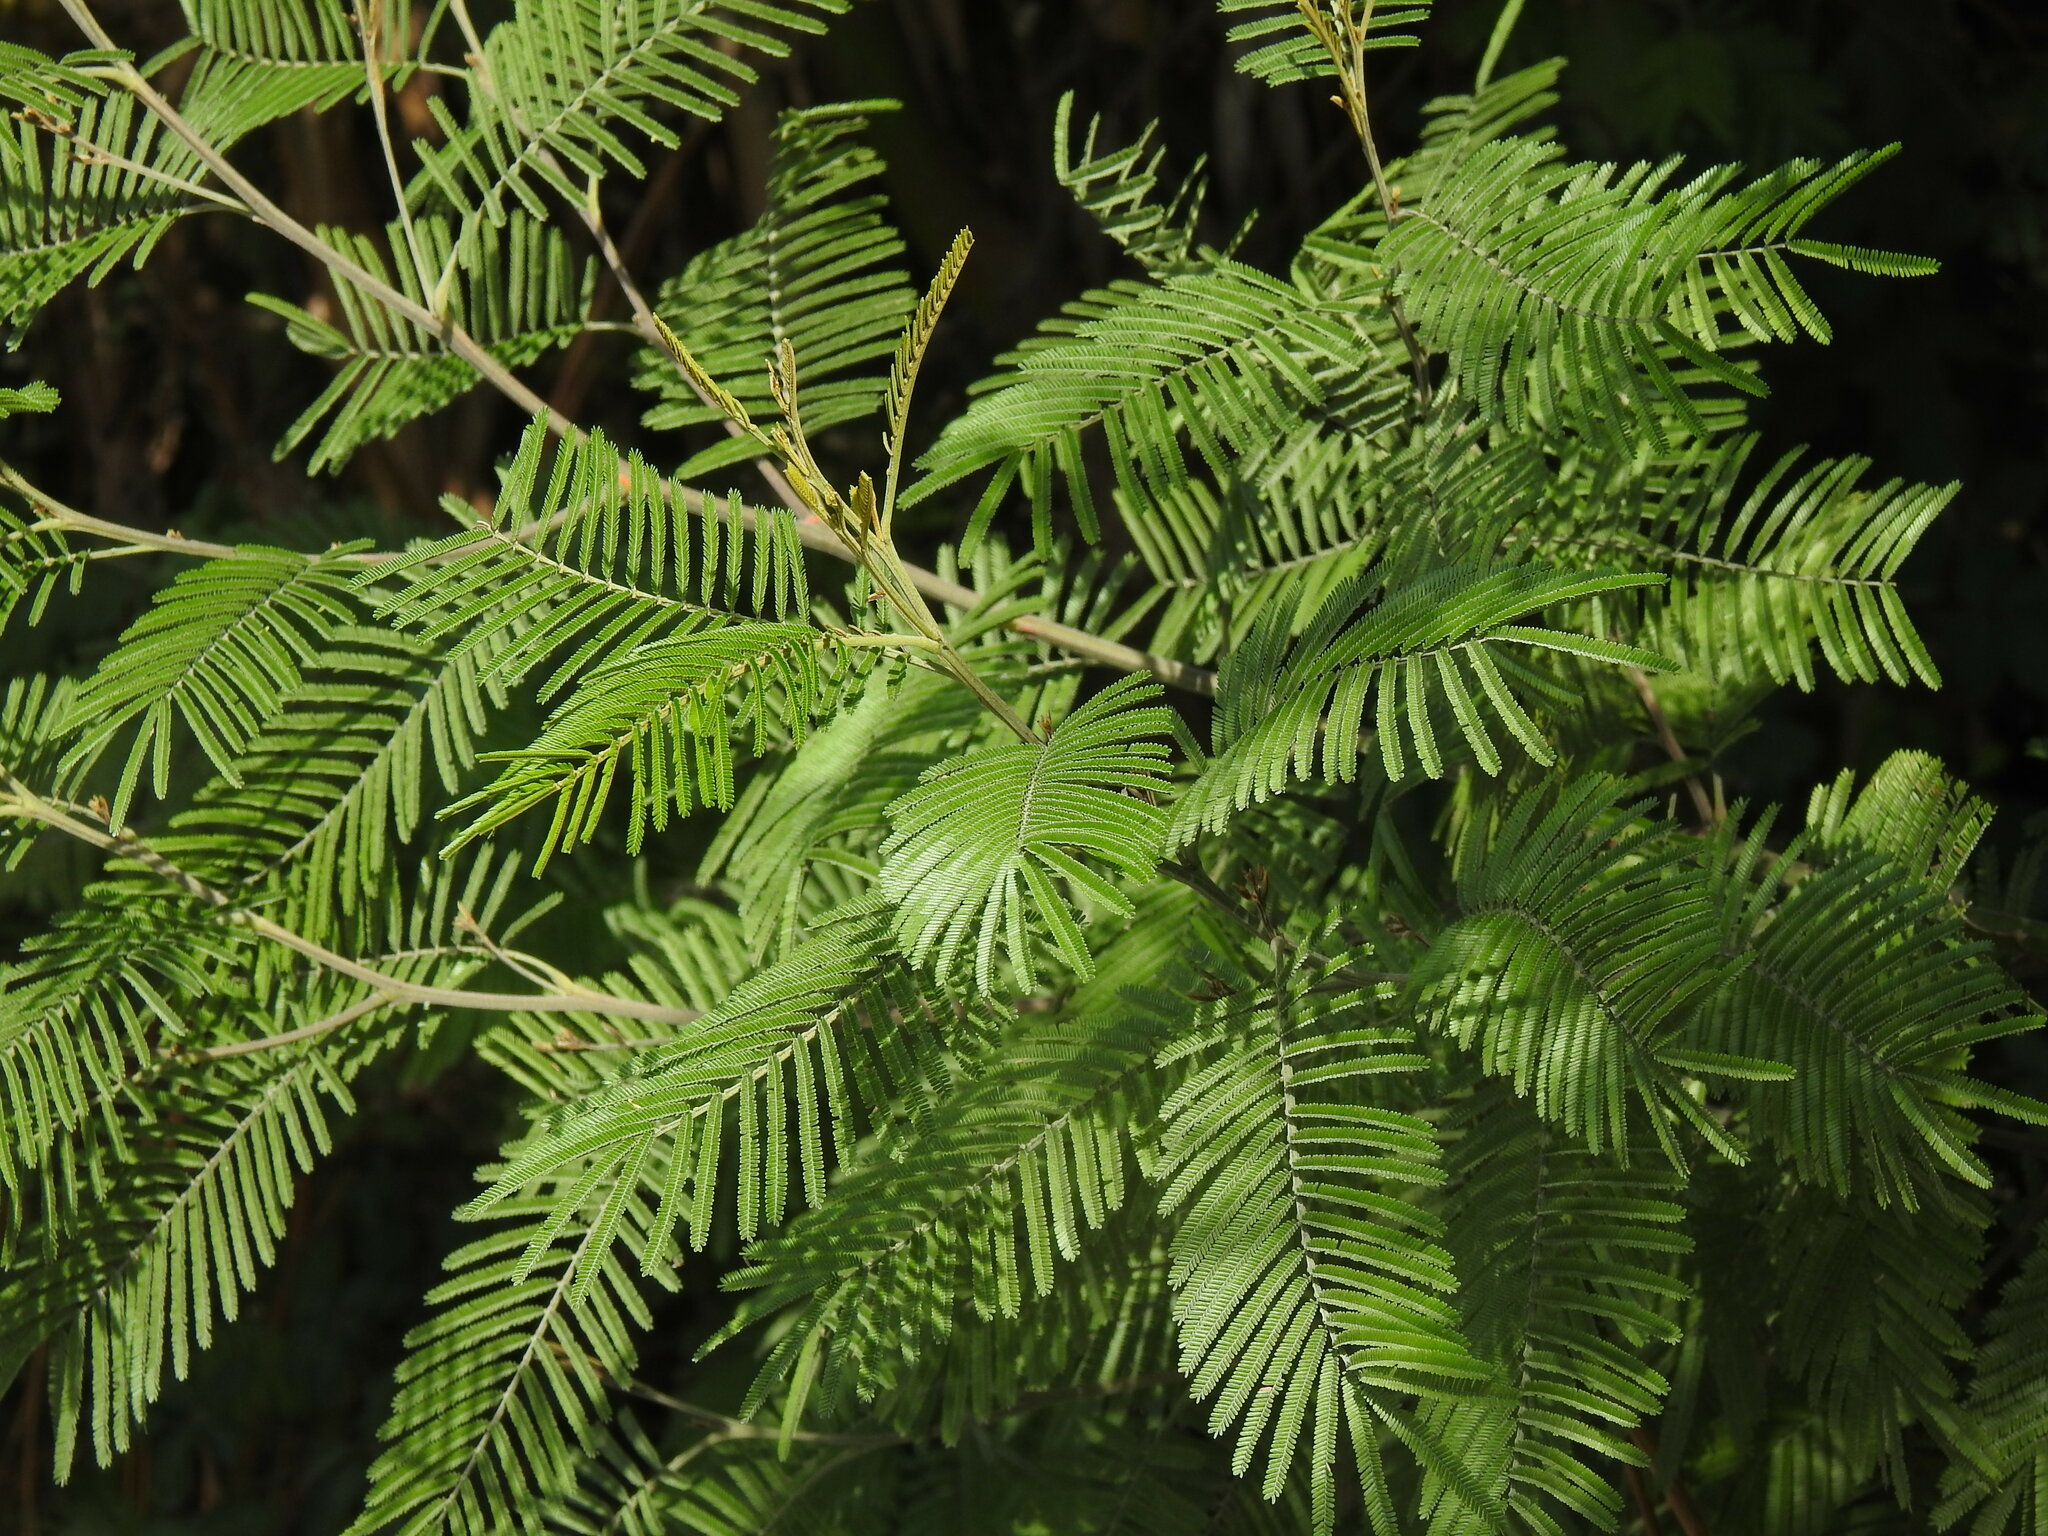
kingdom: Plantae
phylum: Tracheophyta
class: Magnoliopsida
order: Fabales
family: Fabaceae
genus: Acacia
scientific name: Acacia mearnsii
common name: Black wattle
